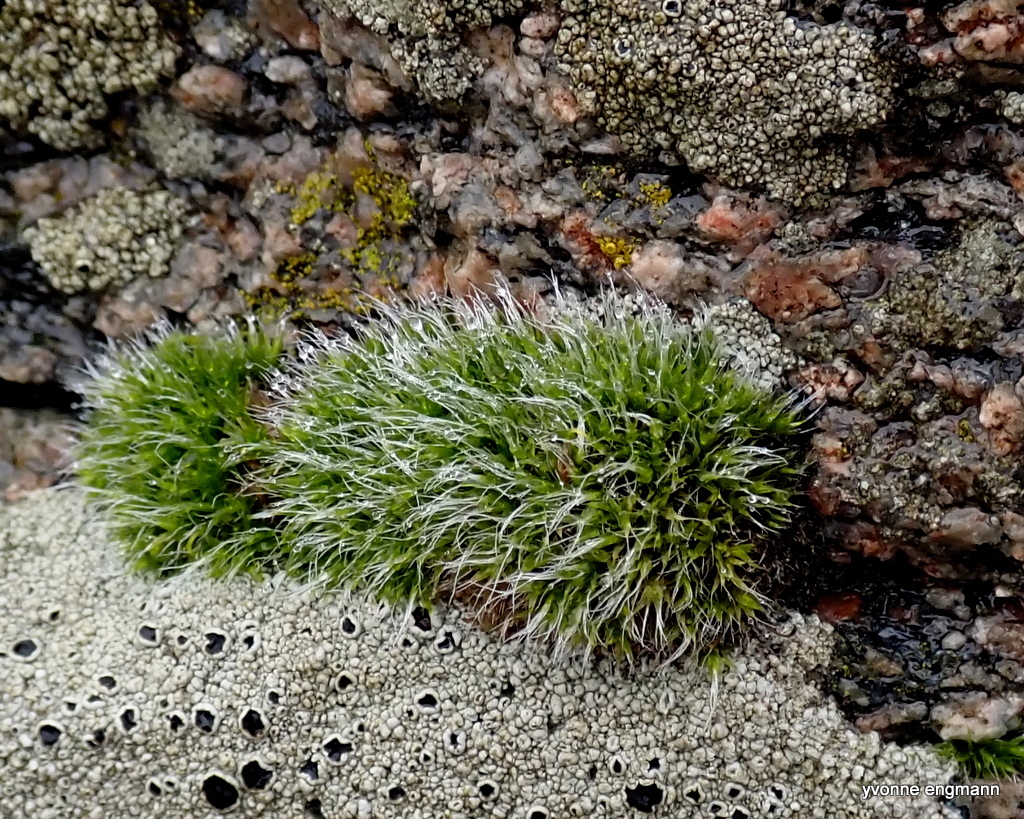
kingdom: Plantae
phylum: Bryophyta
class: Bryopsida
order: Grimmiales
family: Grimmiaceae
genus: Grimmia
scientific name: Grimmia pulvinata
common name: Grey-cushioned grimmia
